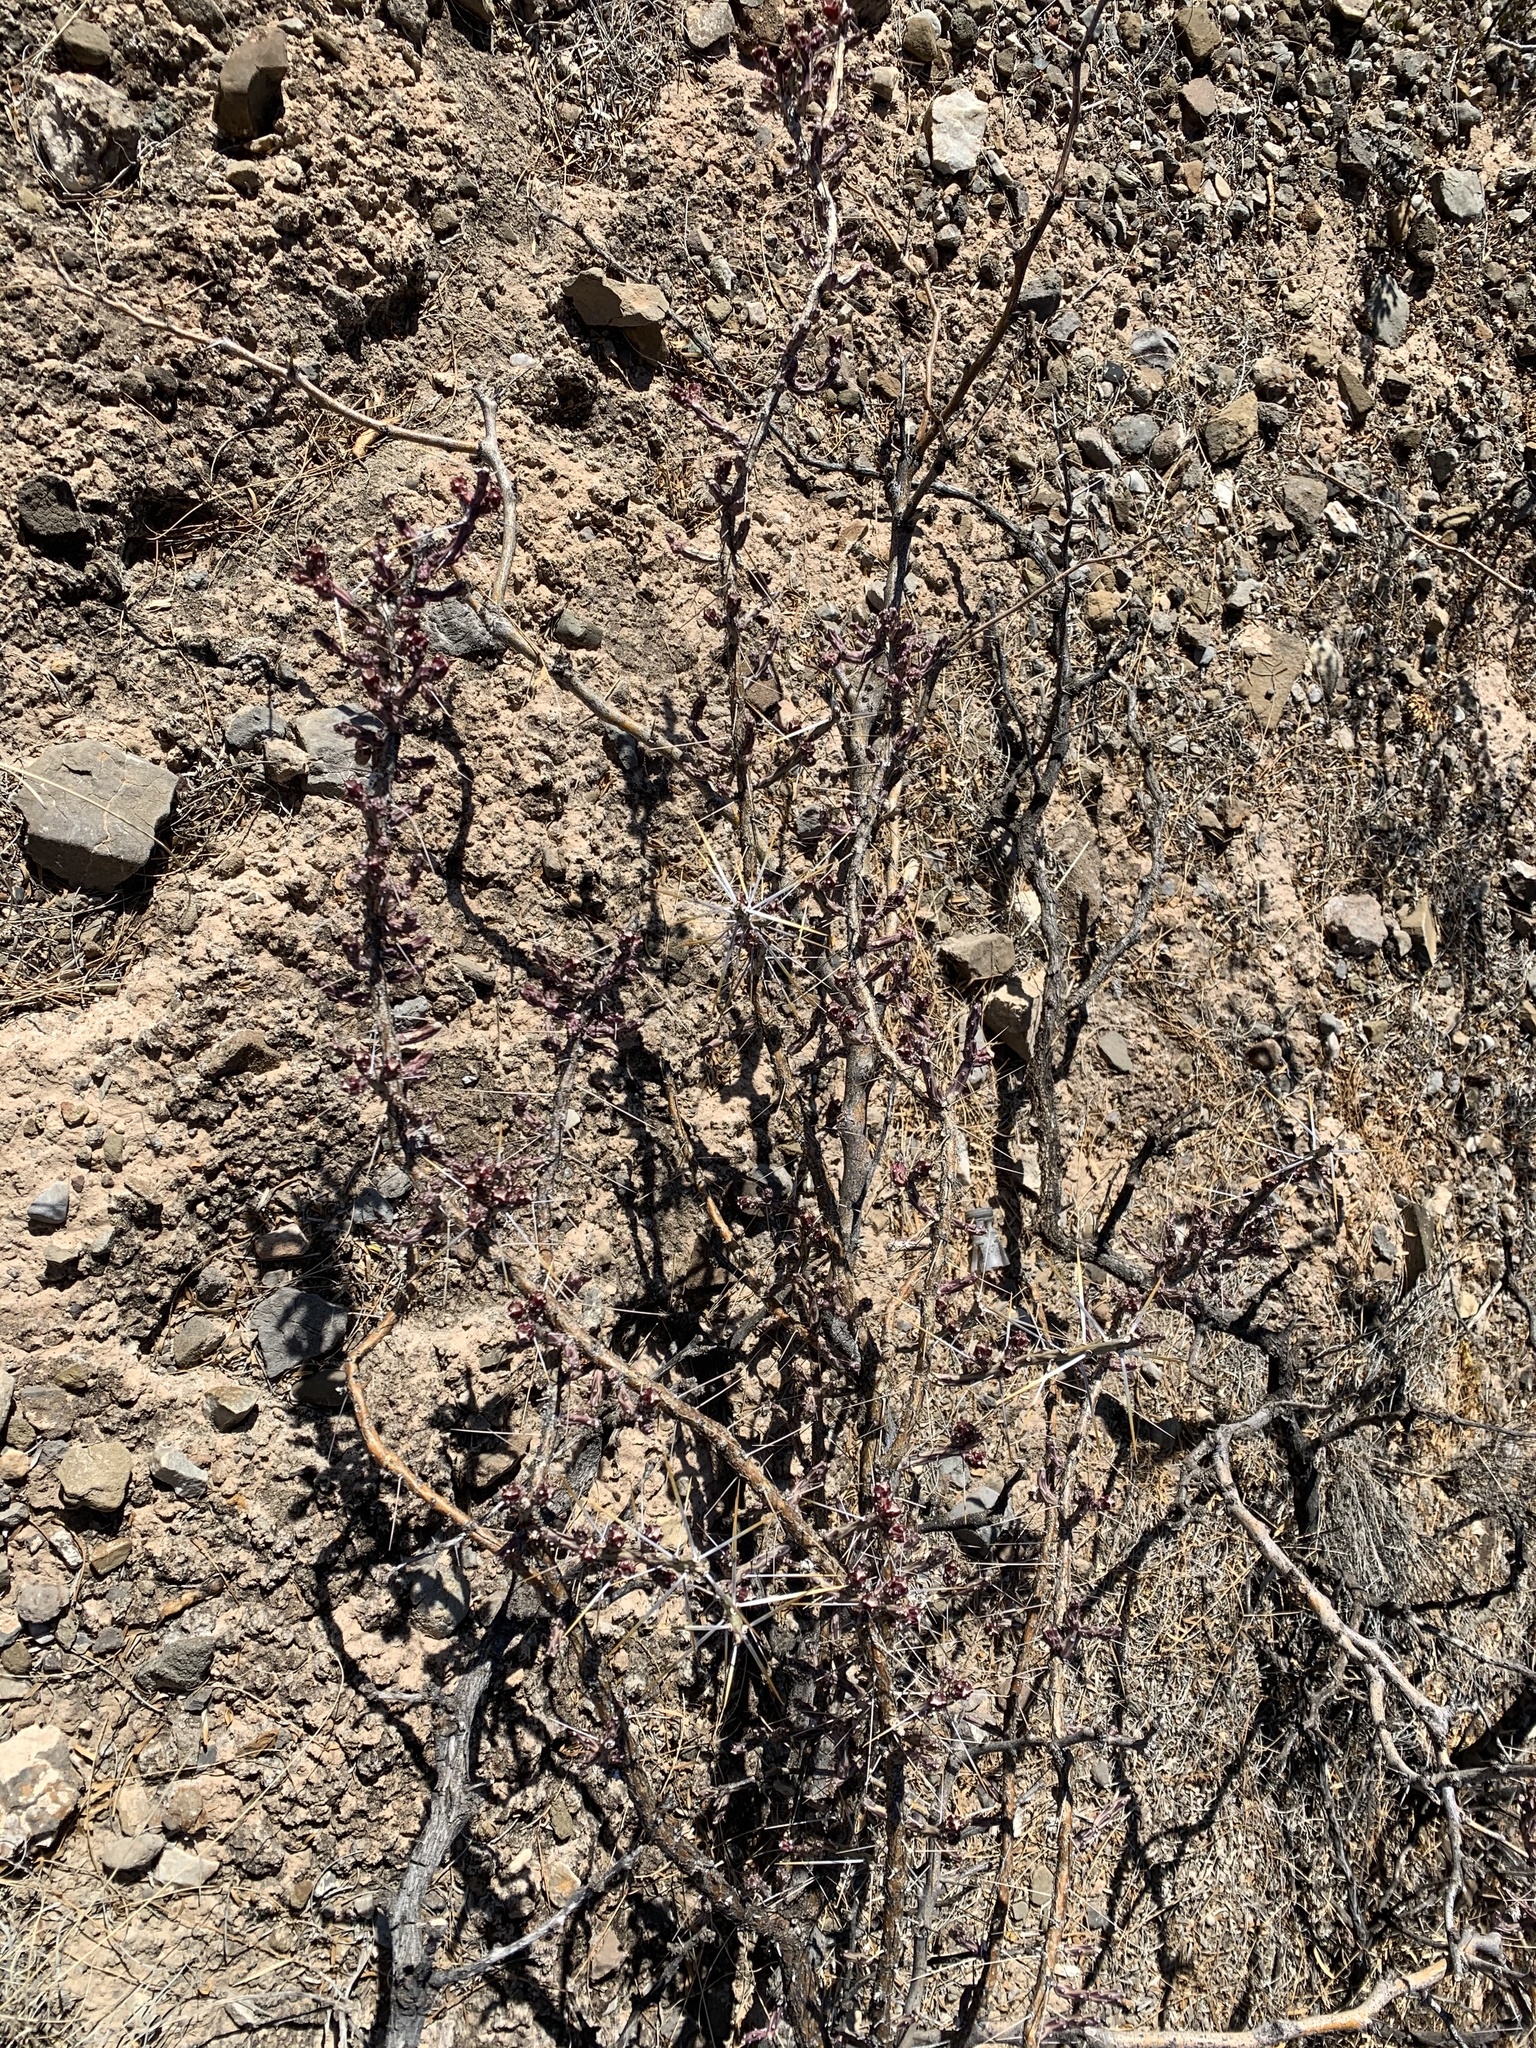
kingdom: Plantae
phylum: Tracheophyta
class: Magnoliopsida
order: Caryophyllales
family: Cactaceae
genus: Cylindropuntia
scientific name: Cylindropuntia leptocaulis
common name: Christmas cactus
